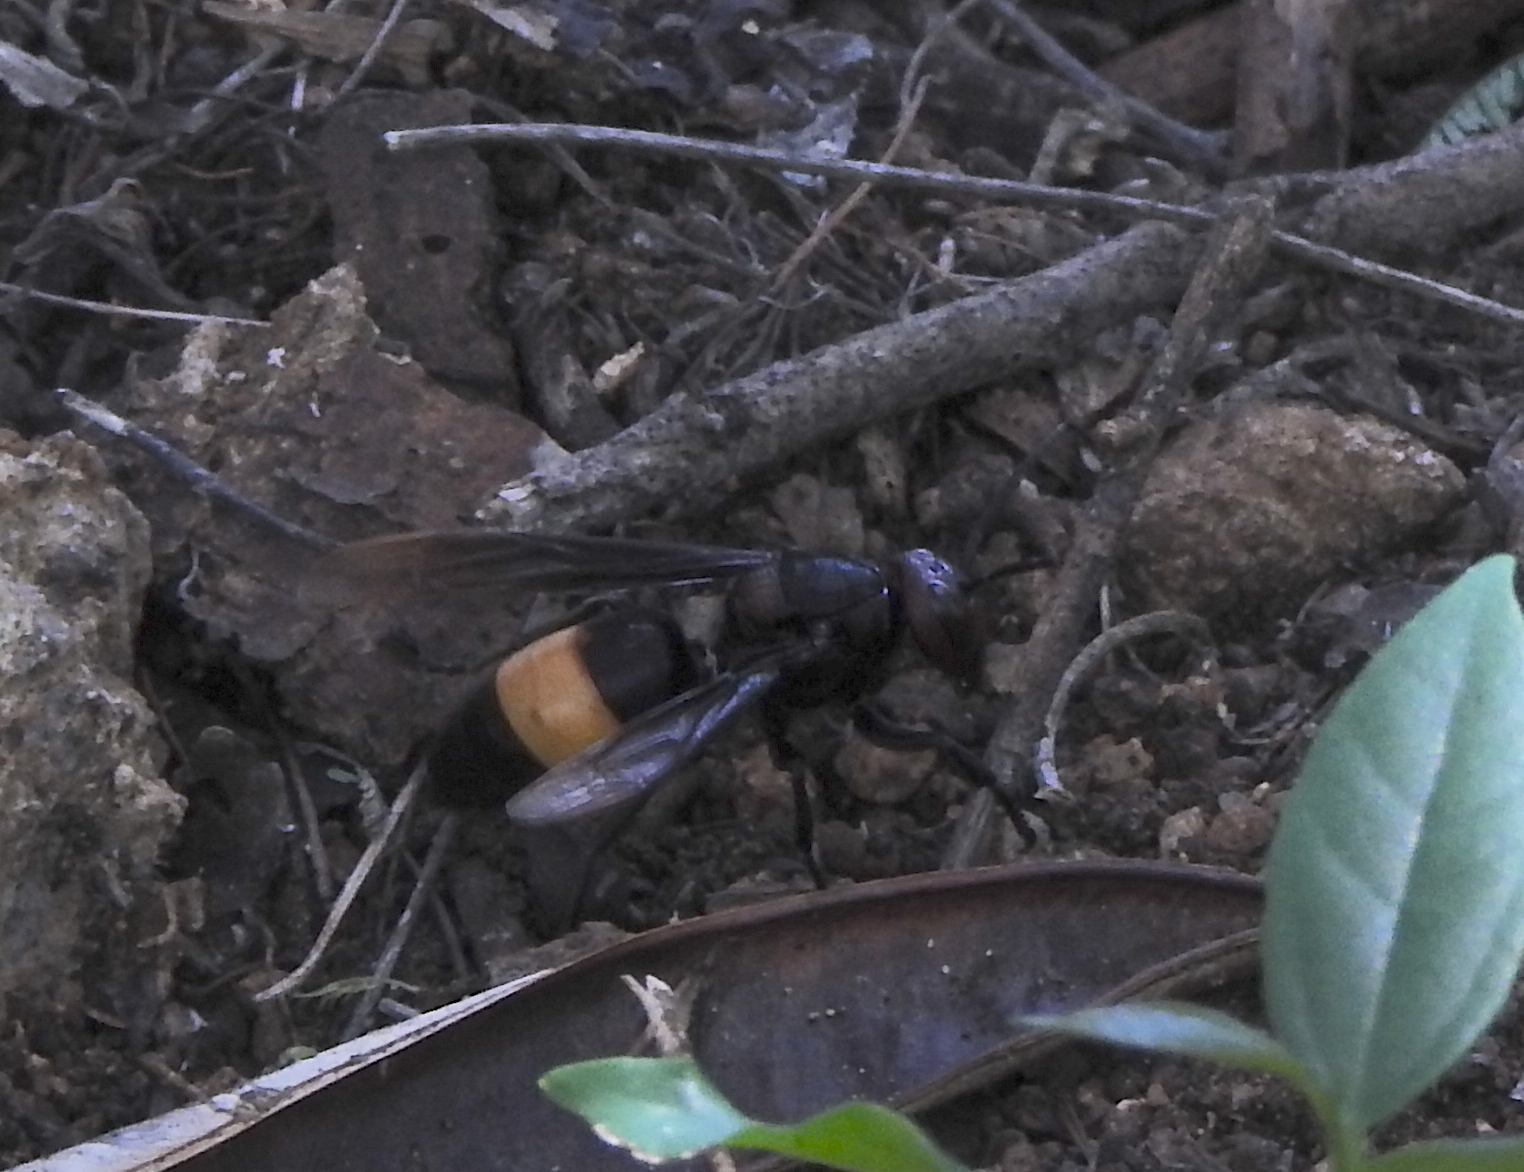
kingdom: Animalia
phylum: Arthropoda
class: Insecta
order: Hymenoptera
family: Vespidae
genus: Vespa
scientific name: Vespa tropica
